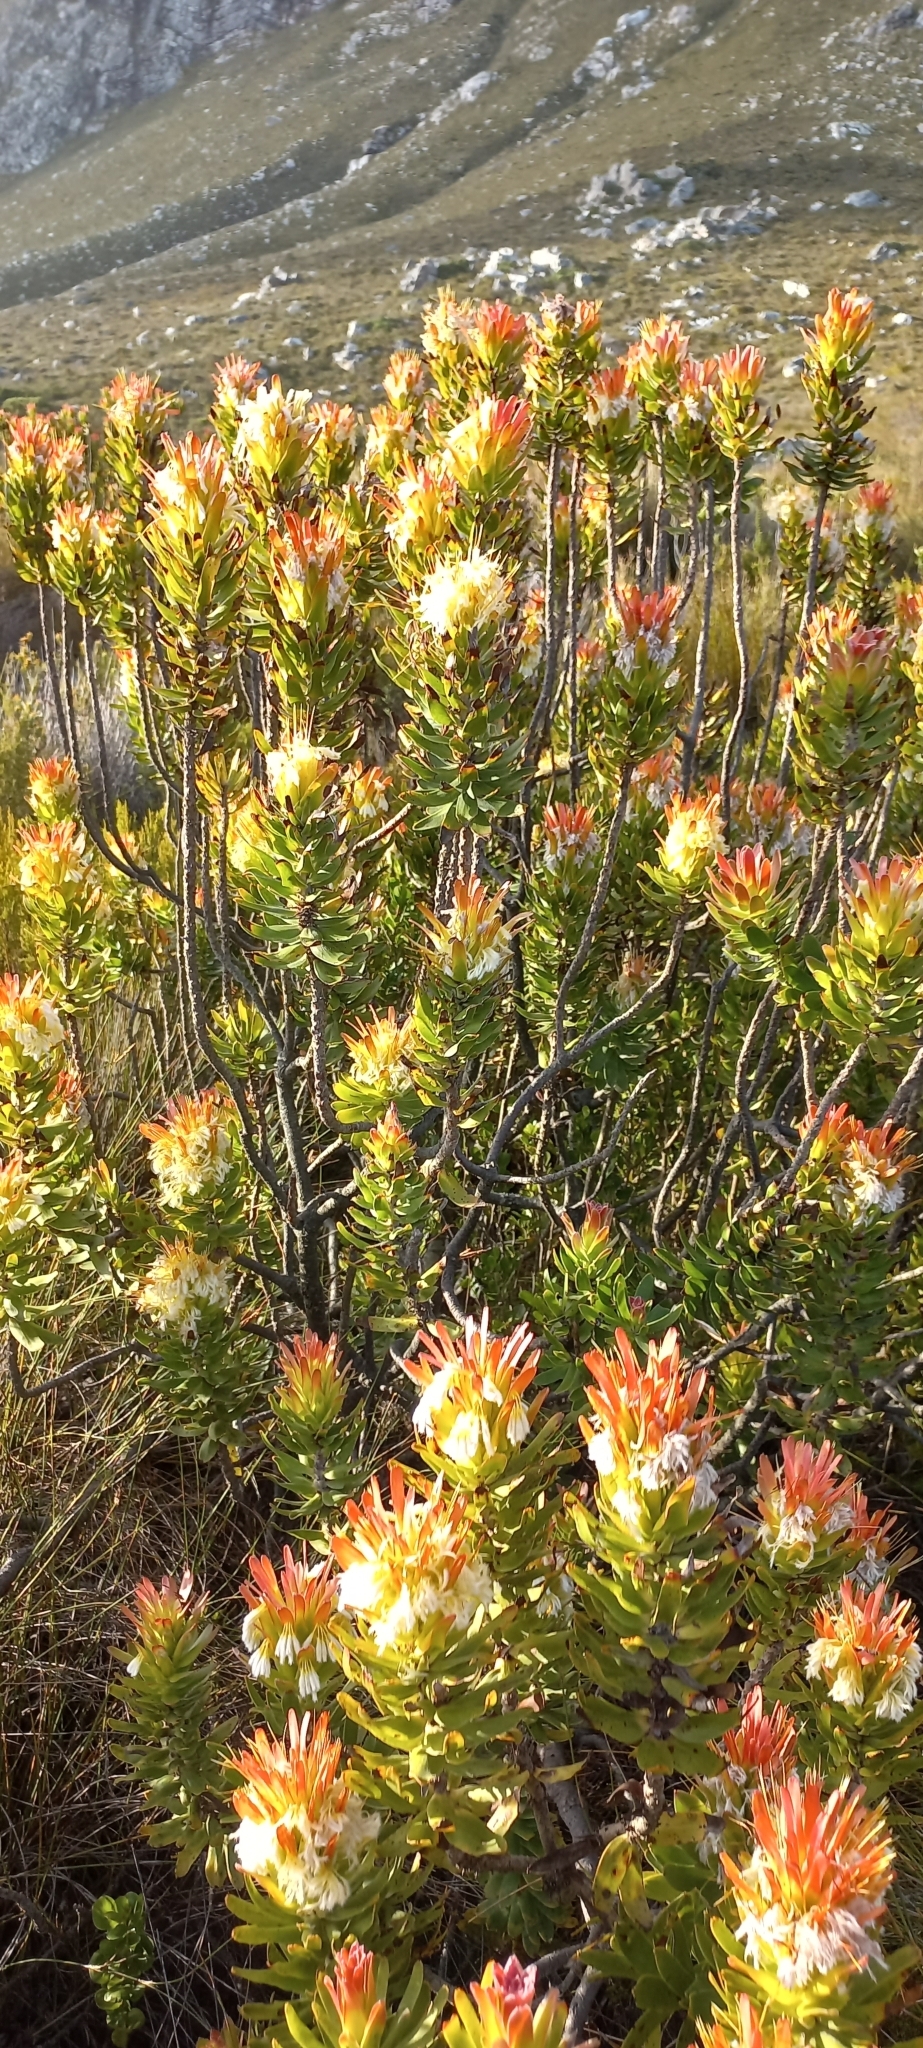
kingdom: Plantae
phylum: Tracheophyta
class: Magnoliopsida
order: Proteales
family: Proteaceae
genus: Mimetes
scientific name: Mimetes cucullatus
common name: Common pagoda
